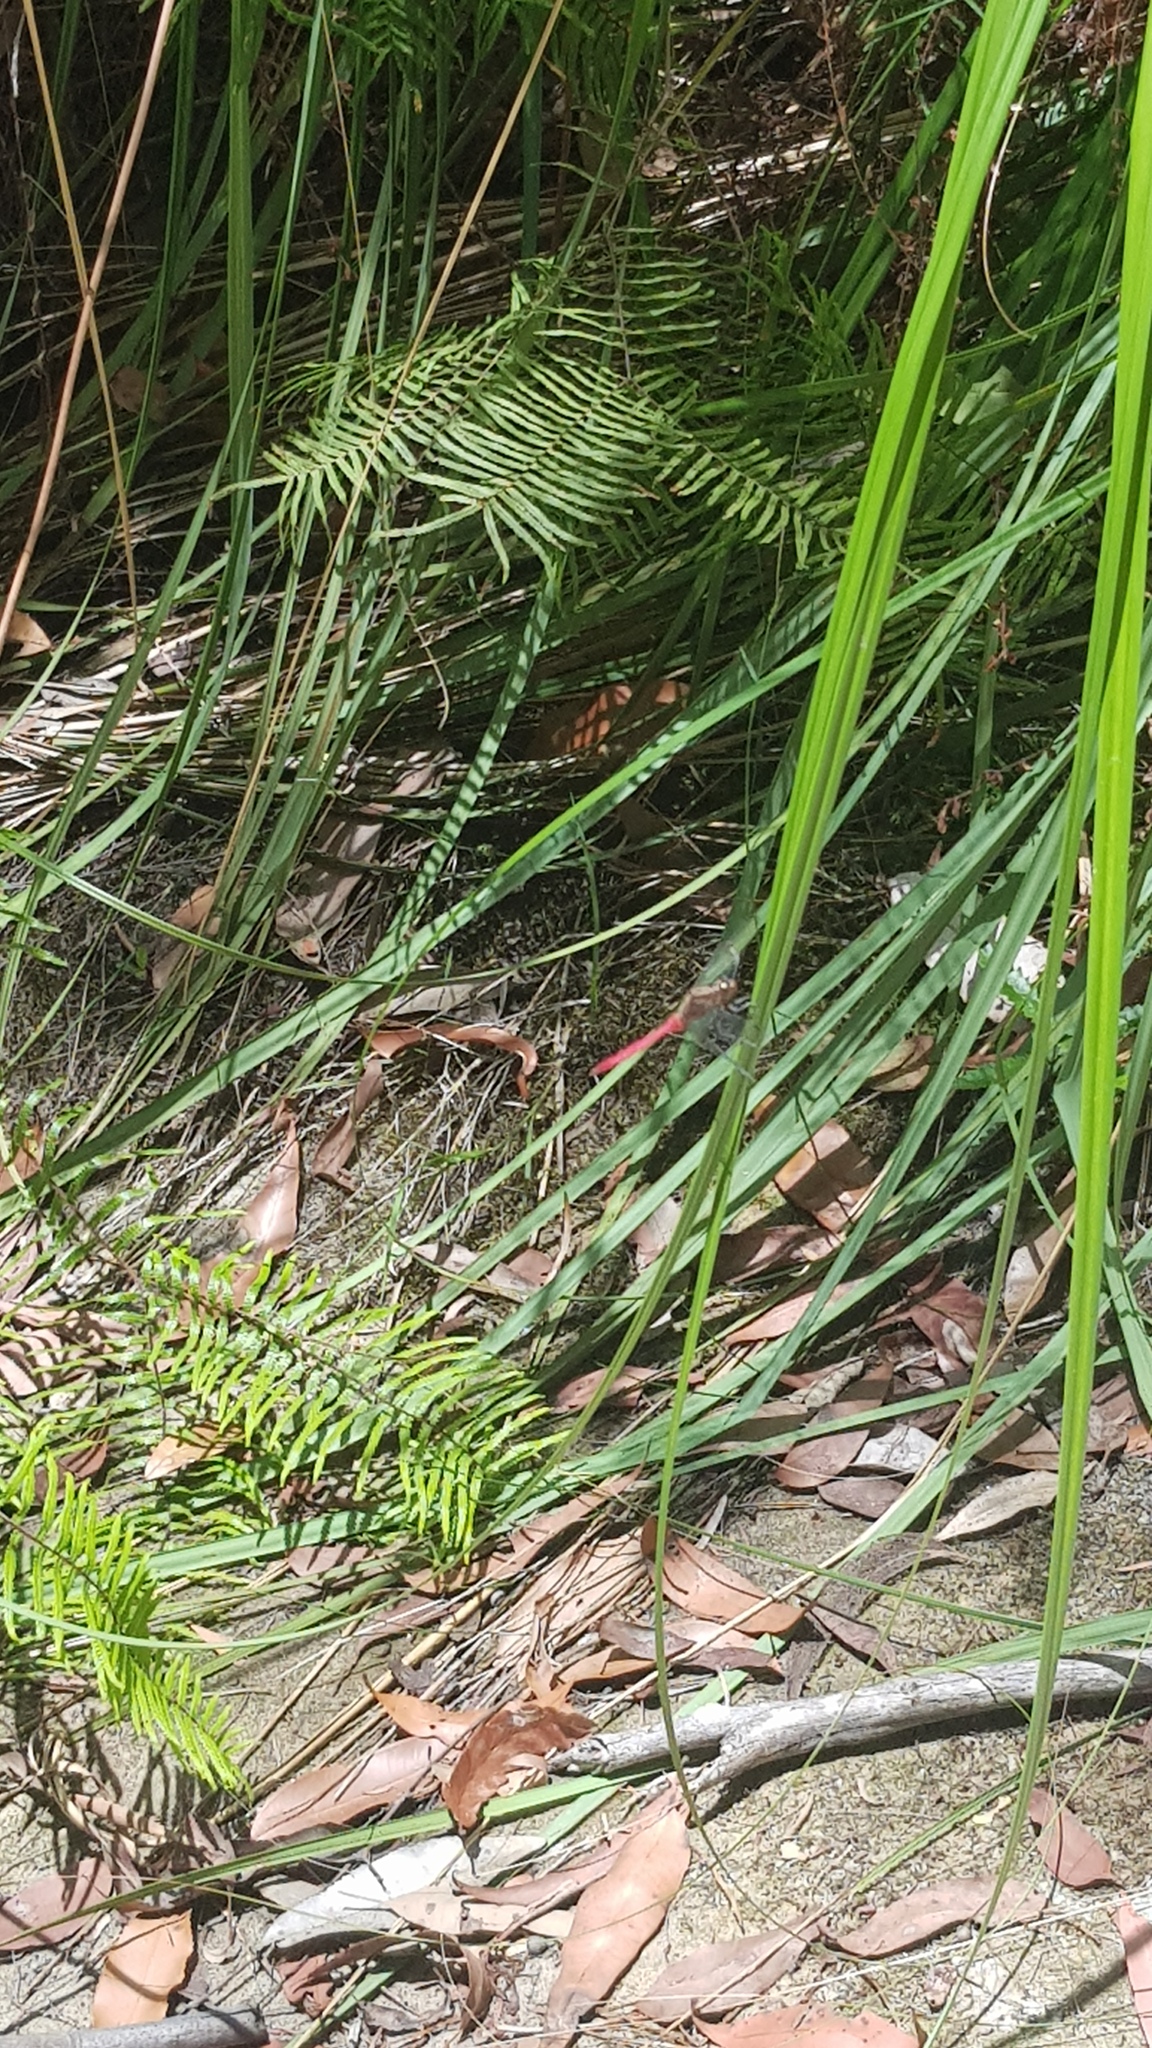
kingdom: Animalia
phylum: Arthropoda
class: Insecta
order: Odonata
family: Libellulidae
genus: Orthetrum
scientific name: Orthetrum villosovittatum
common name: Firery skimmer
